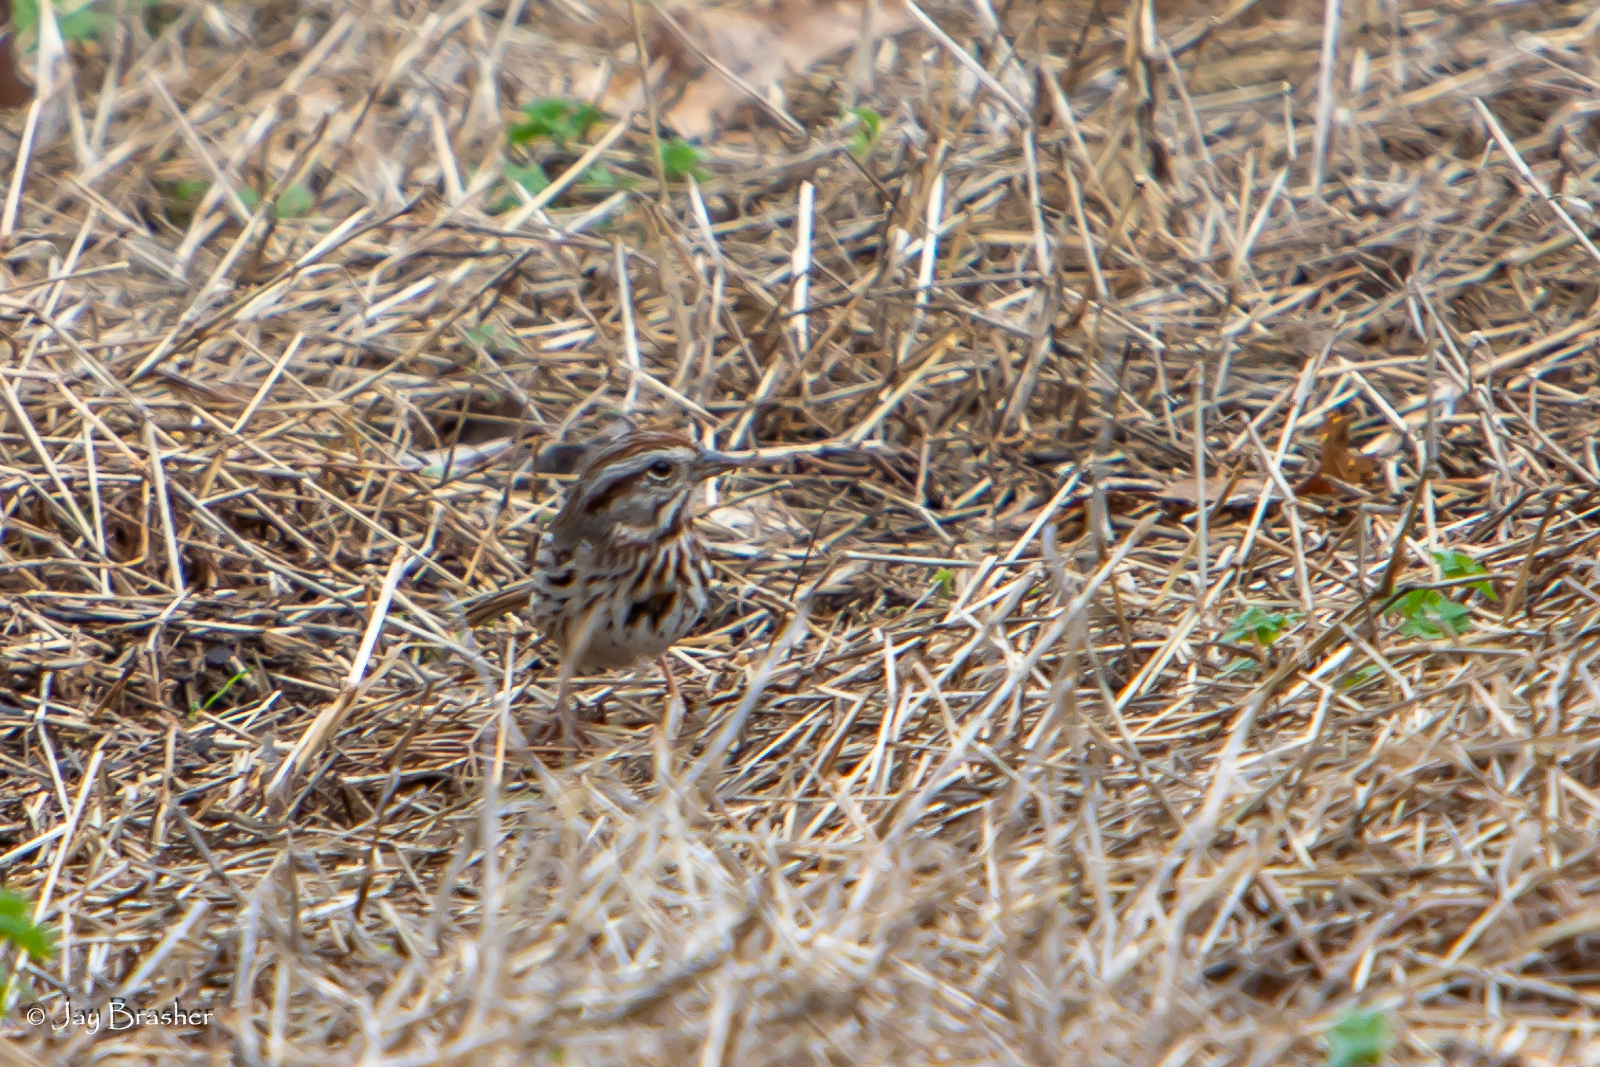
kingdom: Animalia
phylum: Chordata
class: Aves
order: Passeriformes
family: Passerellidae
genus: Melospiza
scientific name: Melospiza melodia
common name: Song sparrow
